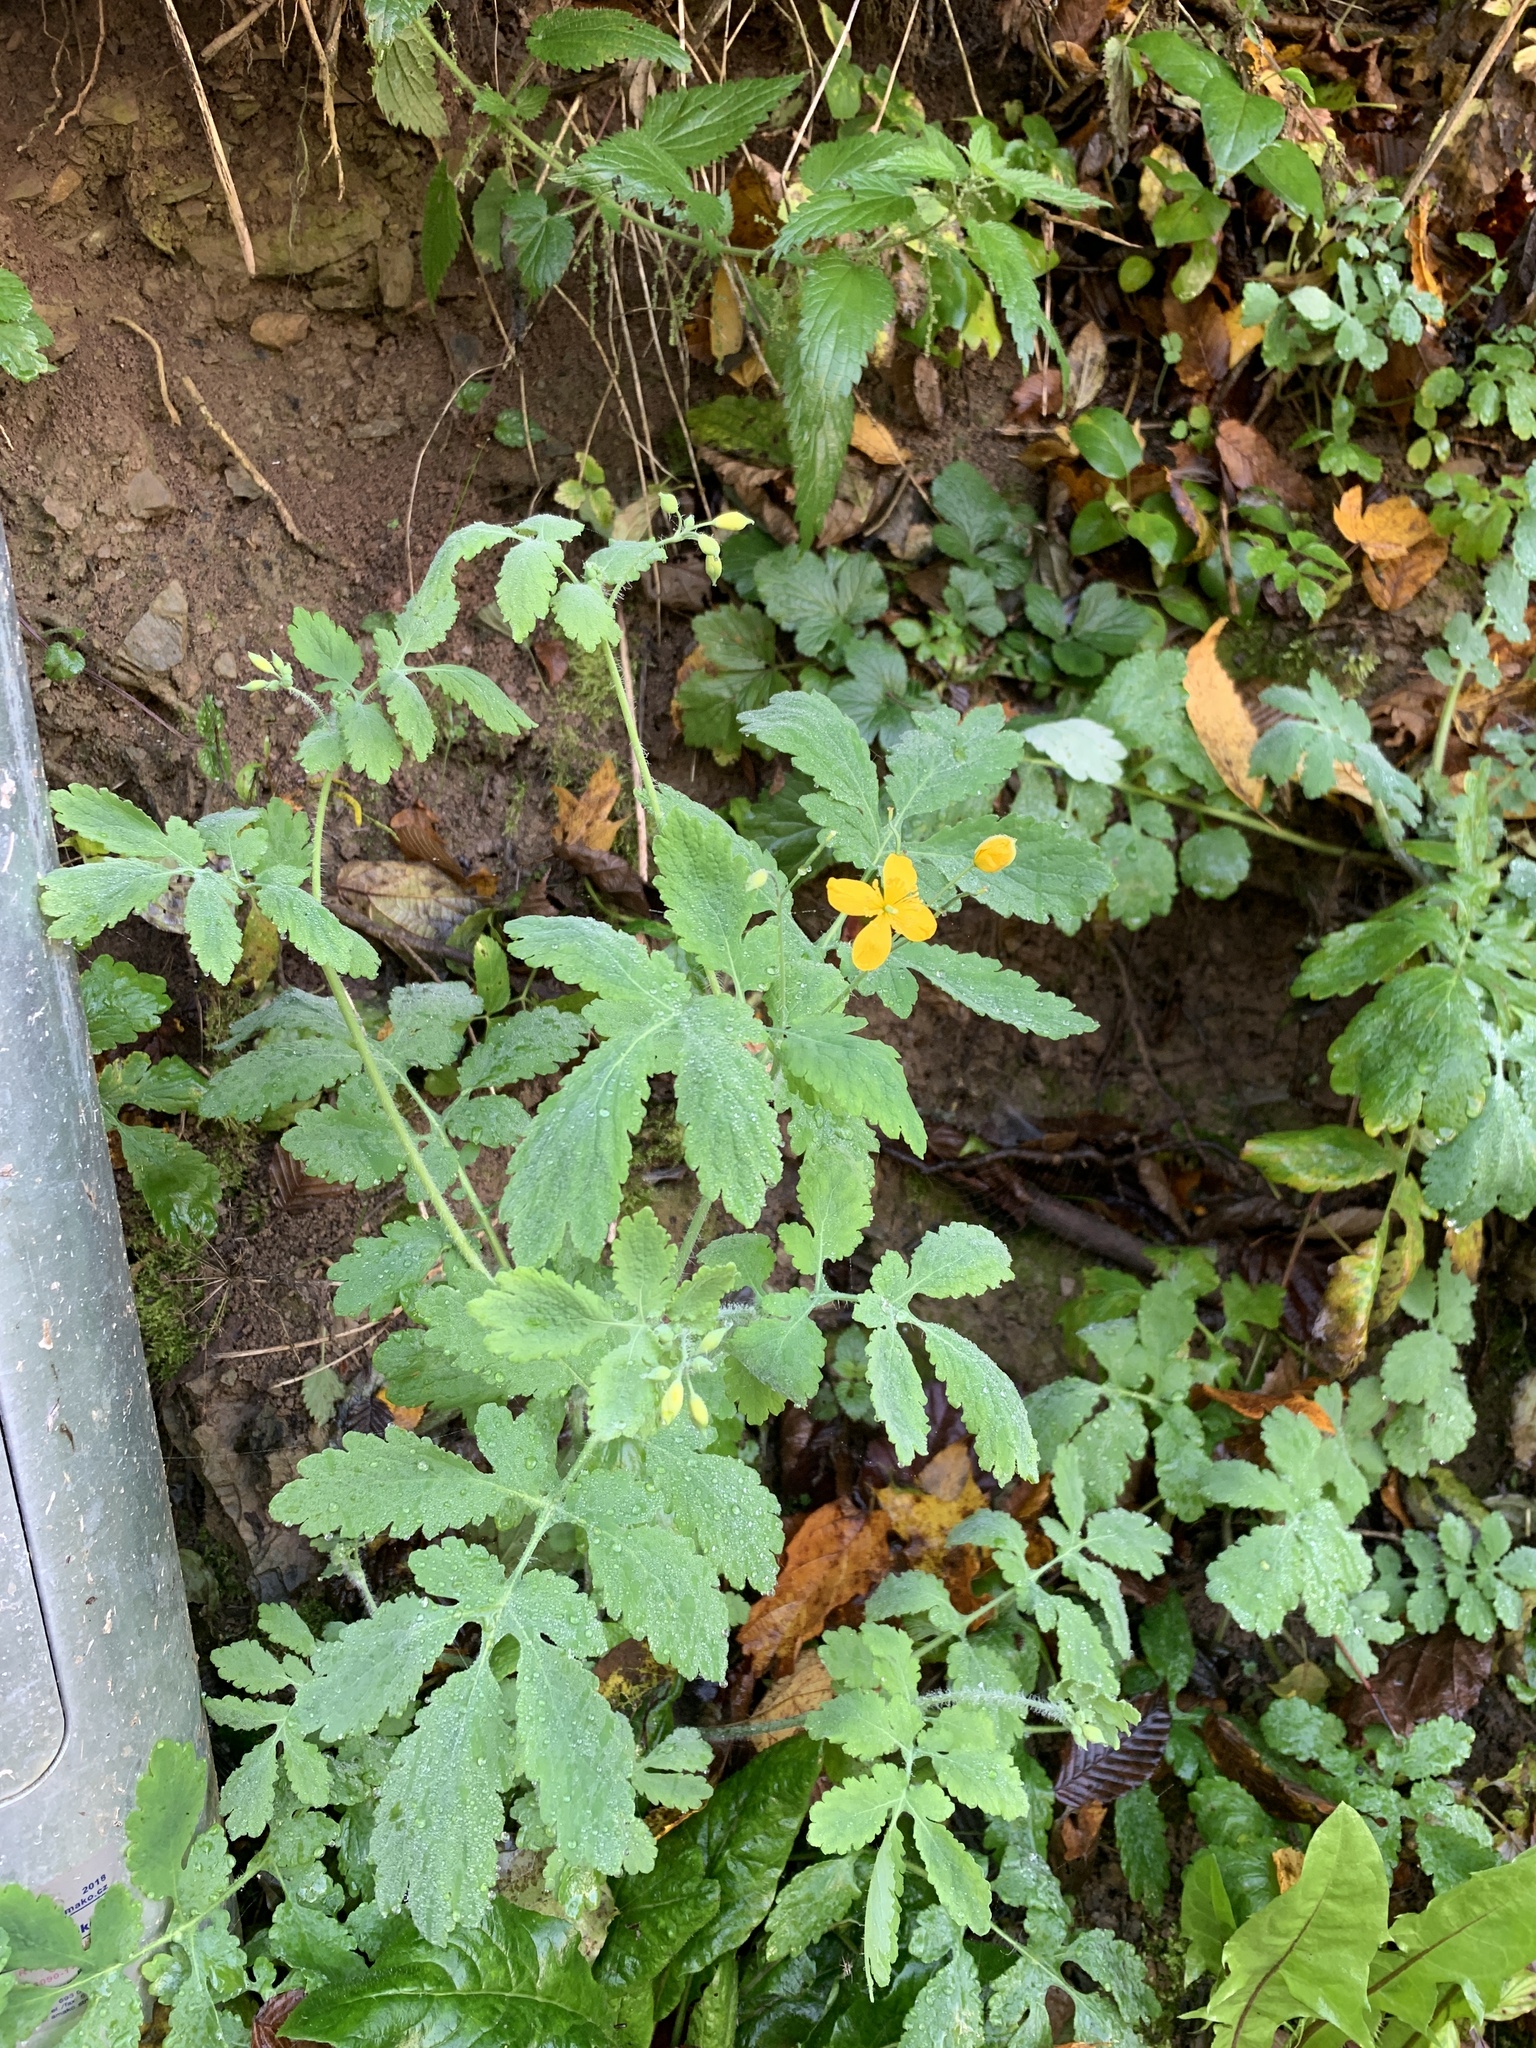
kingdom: Plantae
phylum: Tracheophyta
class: Magnoliopsida
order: Ranunculales
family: Papaveraceae
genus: Chelidonium
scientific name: Chelidonium majus
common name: Greater celandine
